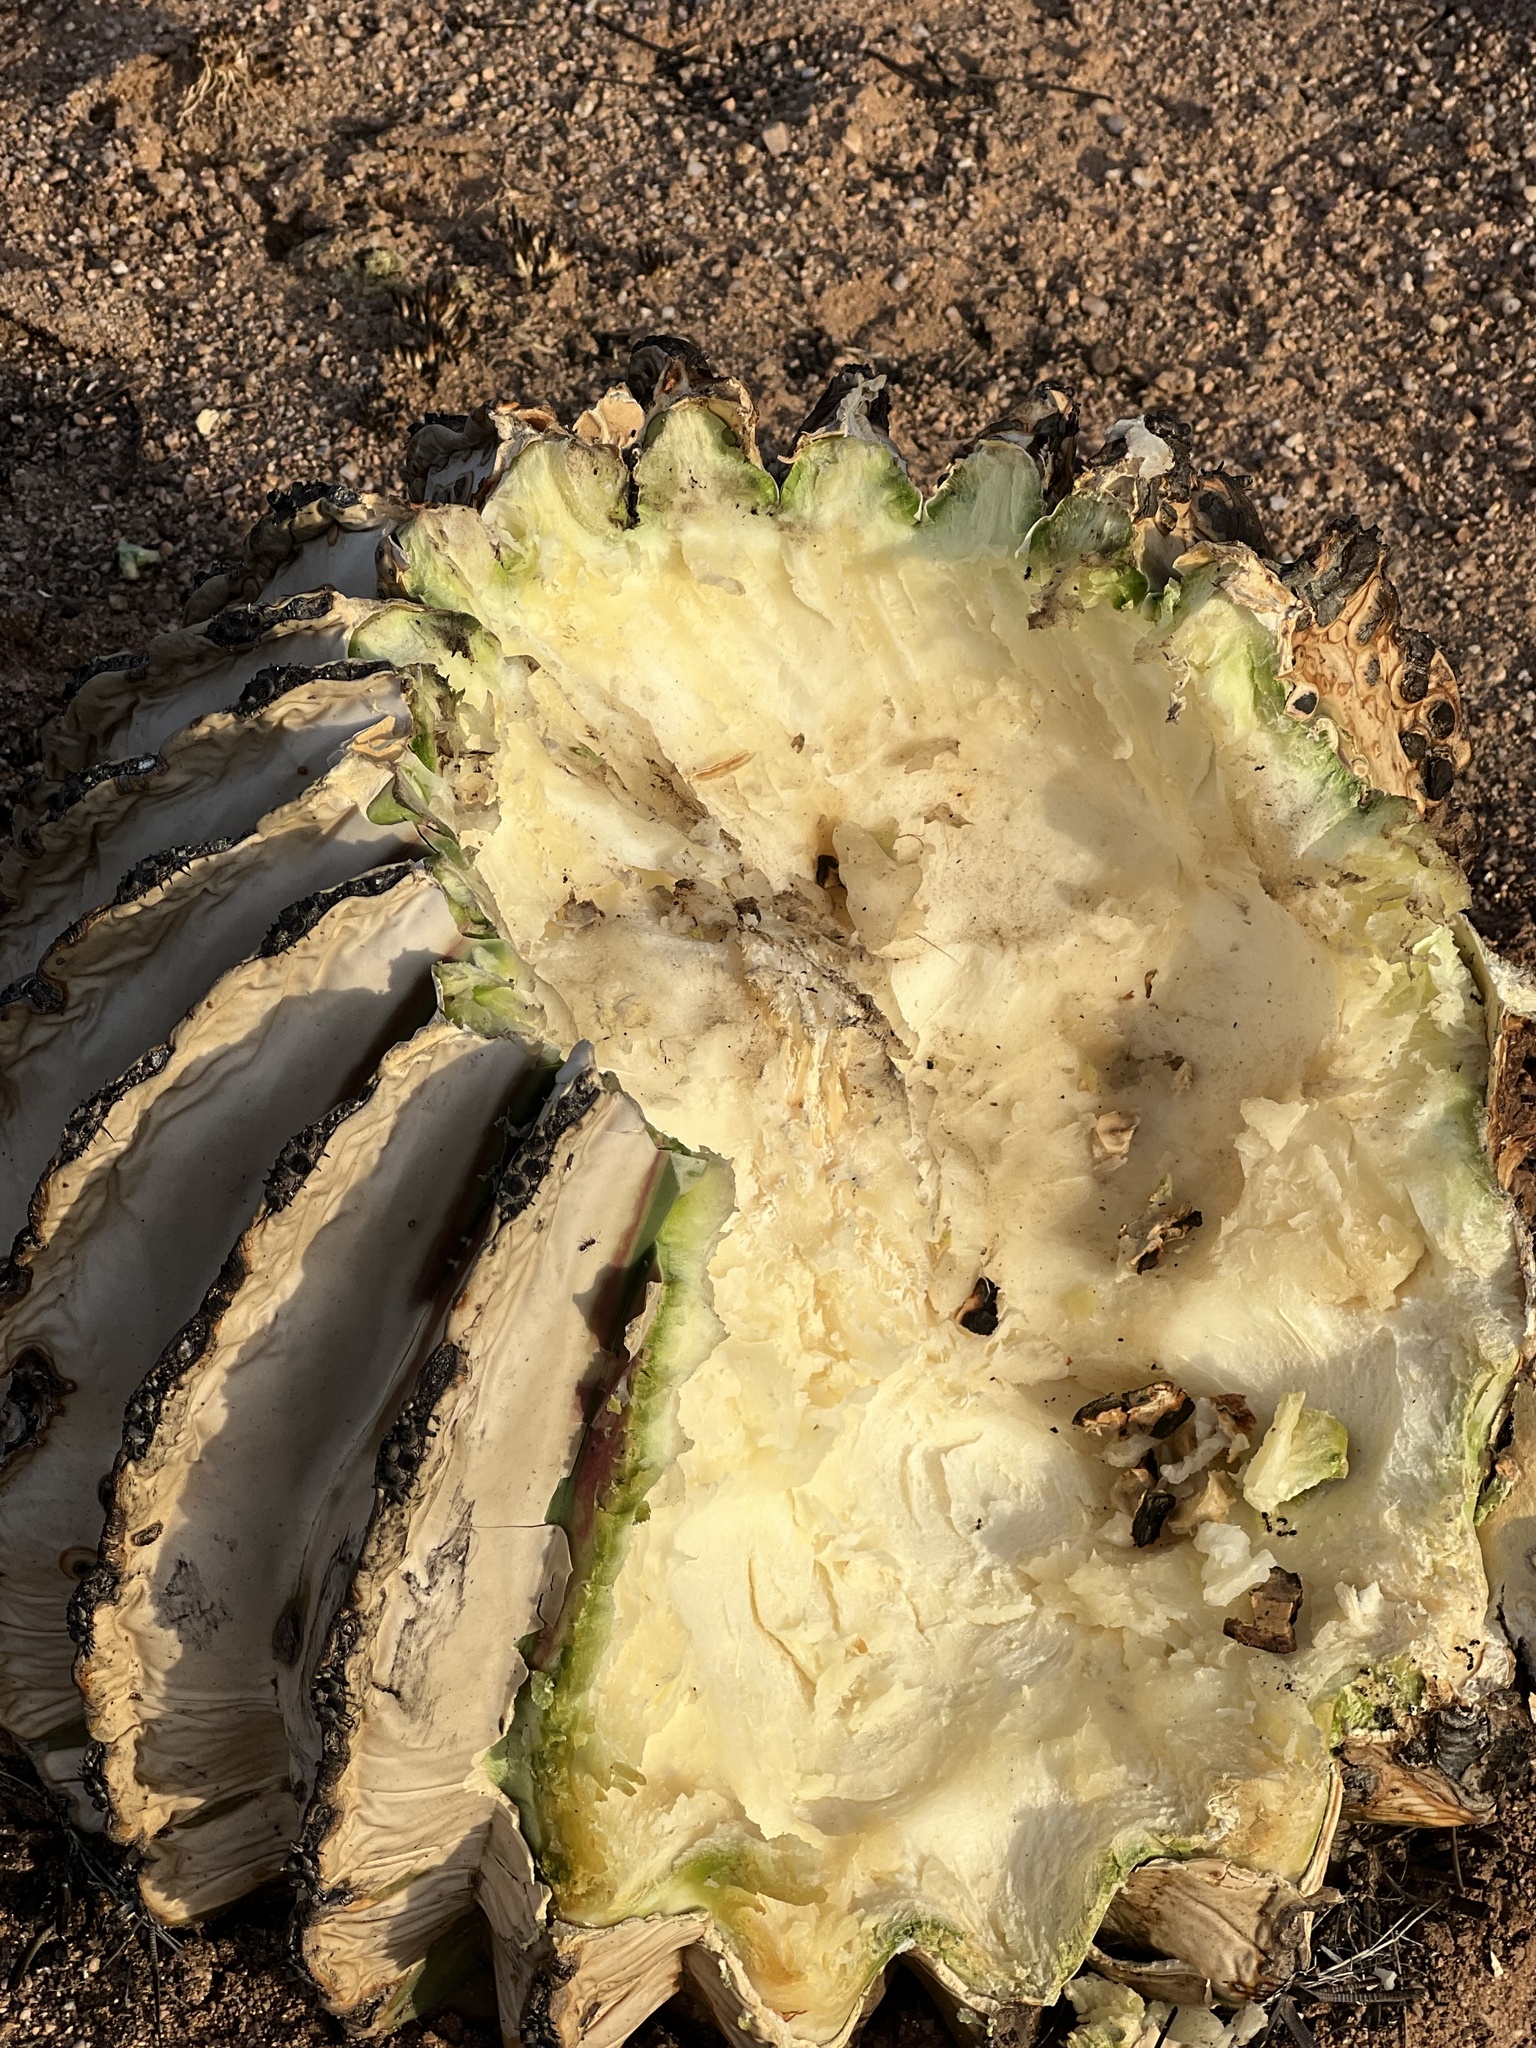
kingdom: Plantae
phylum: Tracheophyta
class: Magnoliopsida
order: Caryophyllales
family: Cactaceae
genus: Ferocactus
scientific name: Ferocactus wislizeni
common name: Candy barrel cactus
